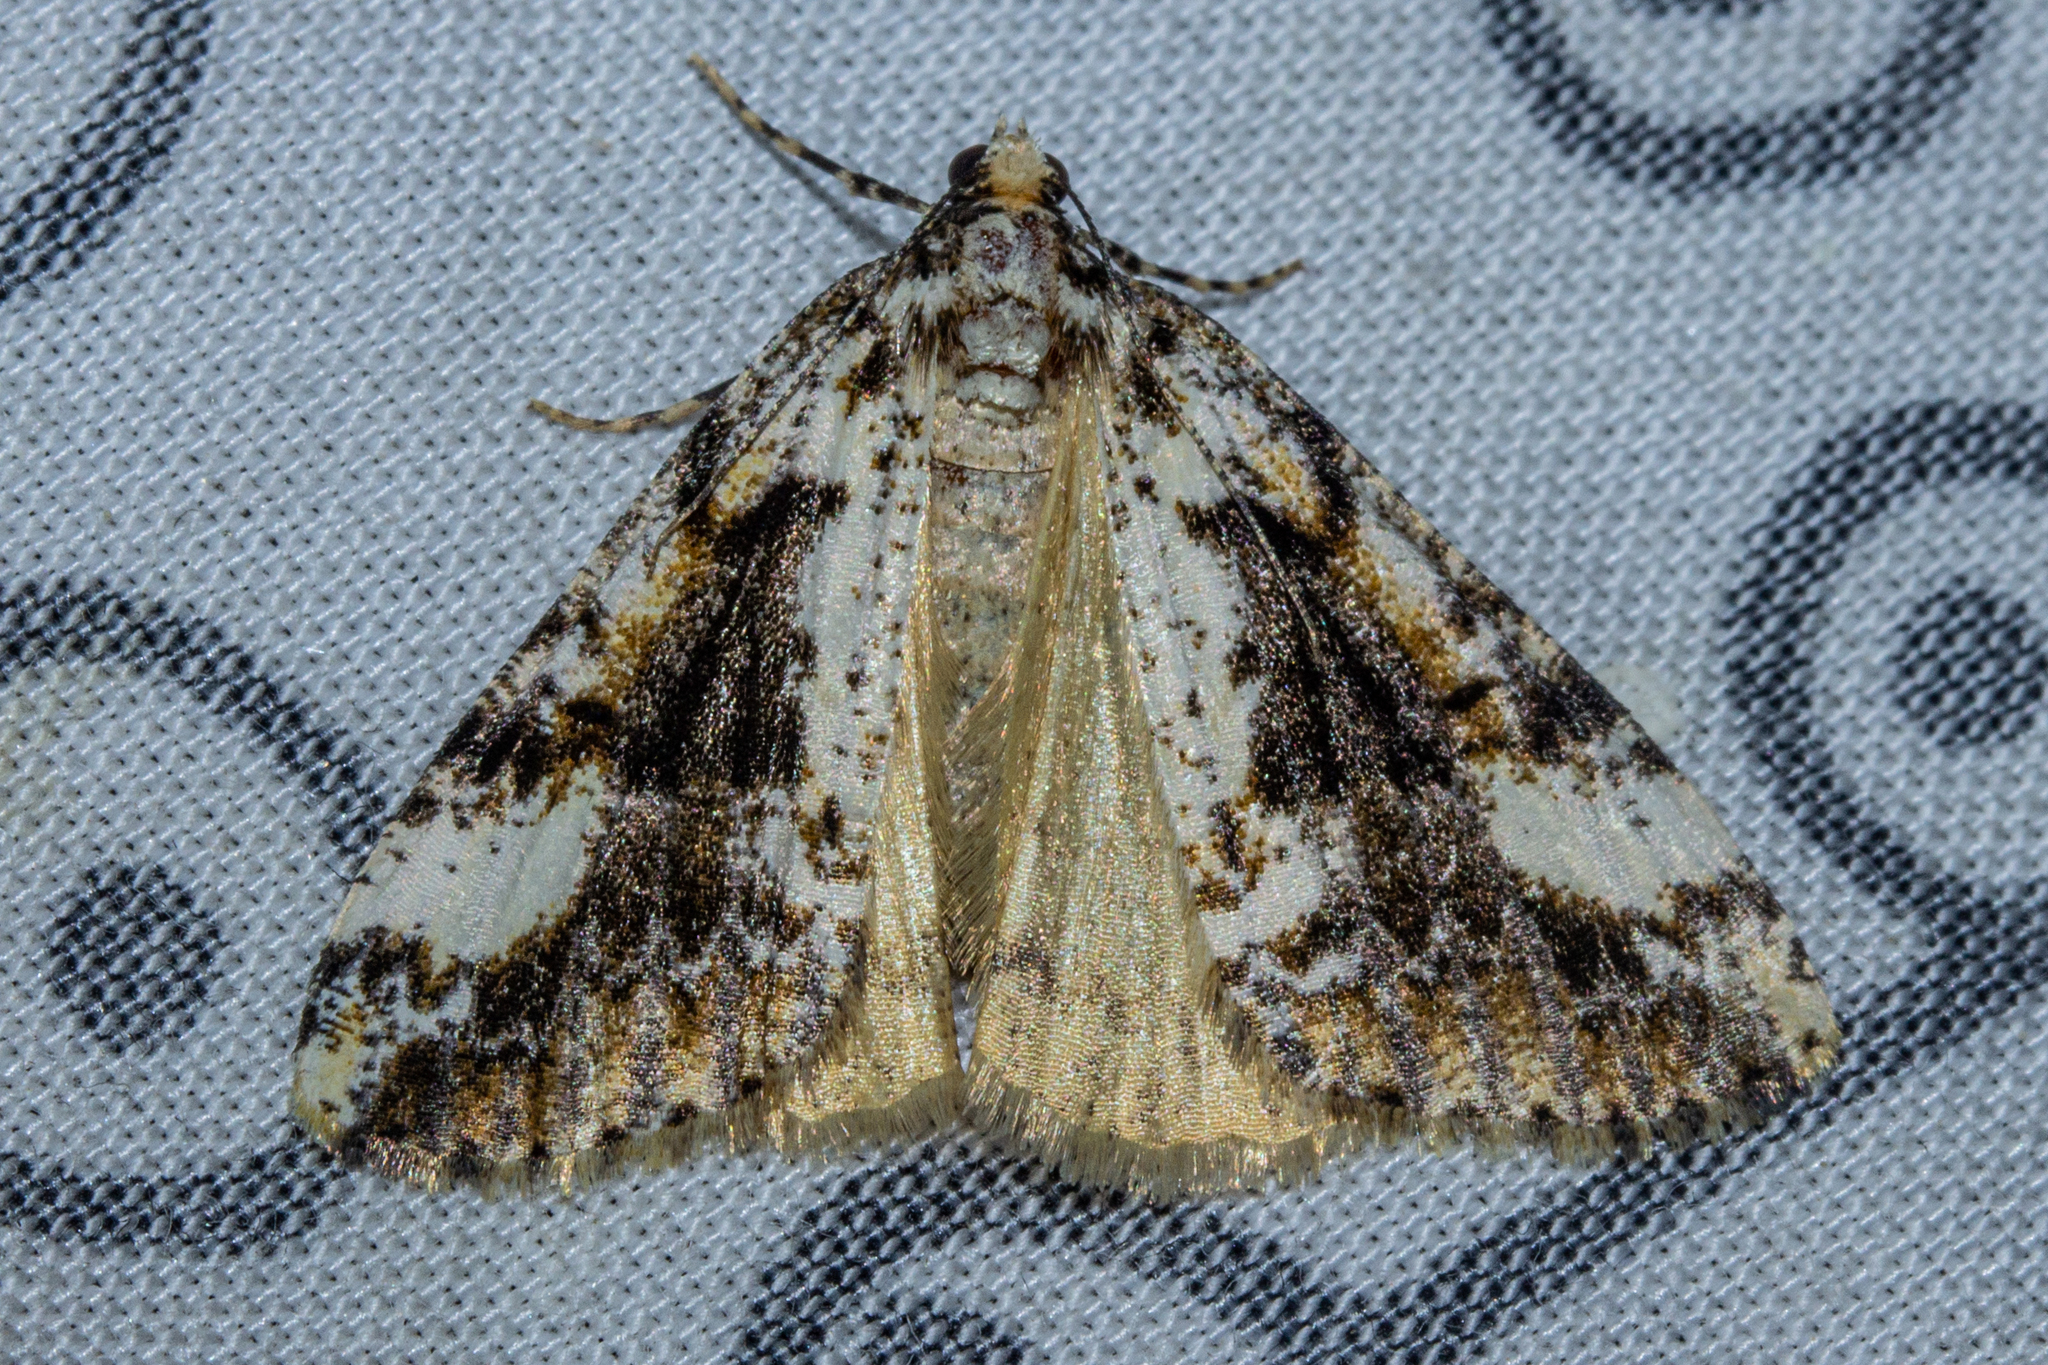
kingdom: Animalia
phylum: Arthropoda
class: Insecta
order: Lepidoptera
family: Geometridae
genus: Pseudocoremia
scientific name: Pseudocoremia leucelaea
